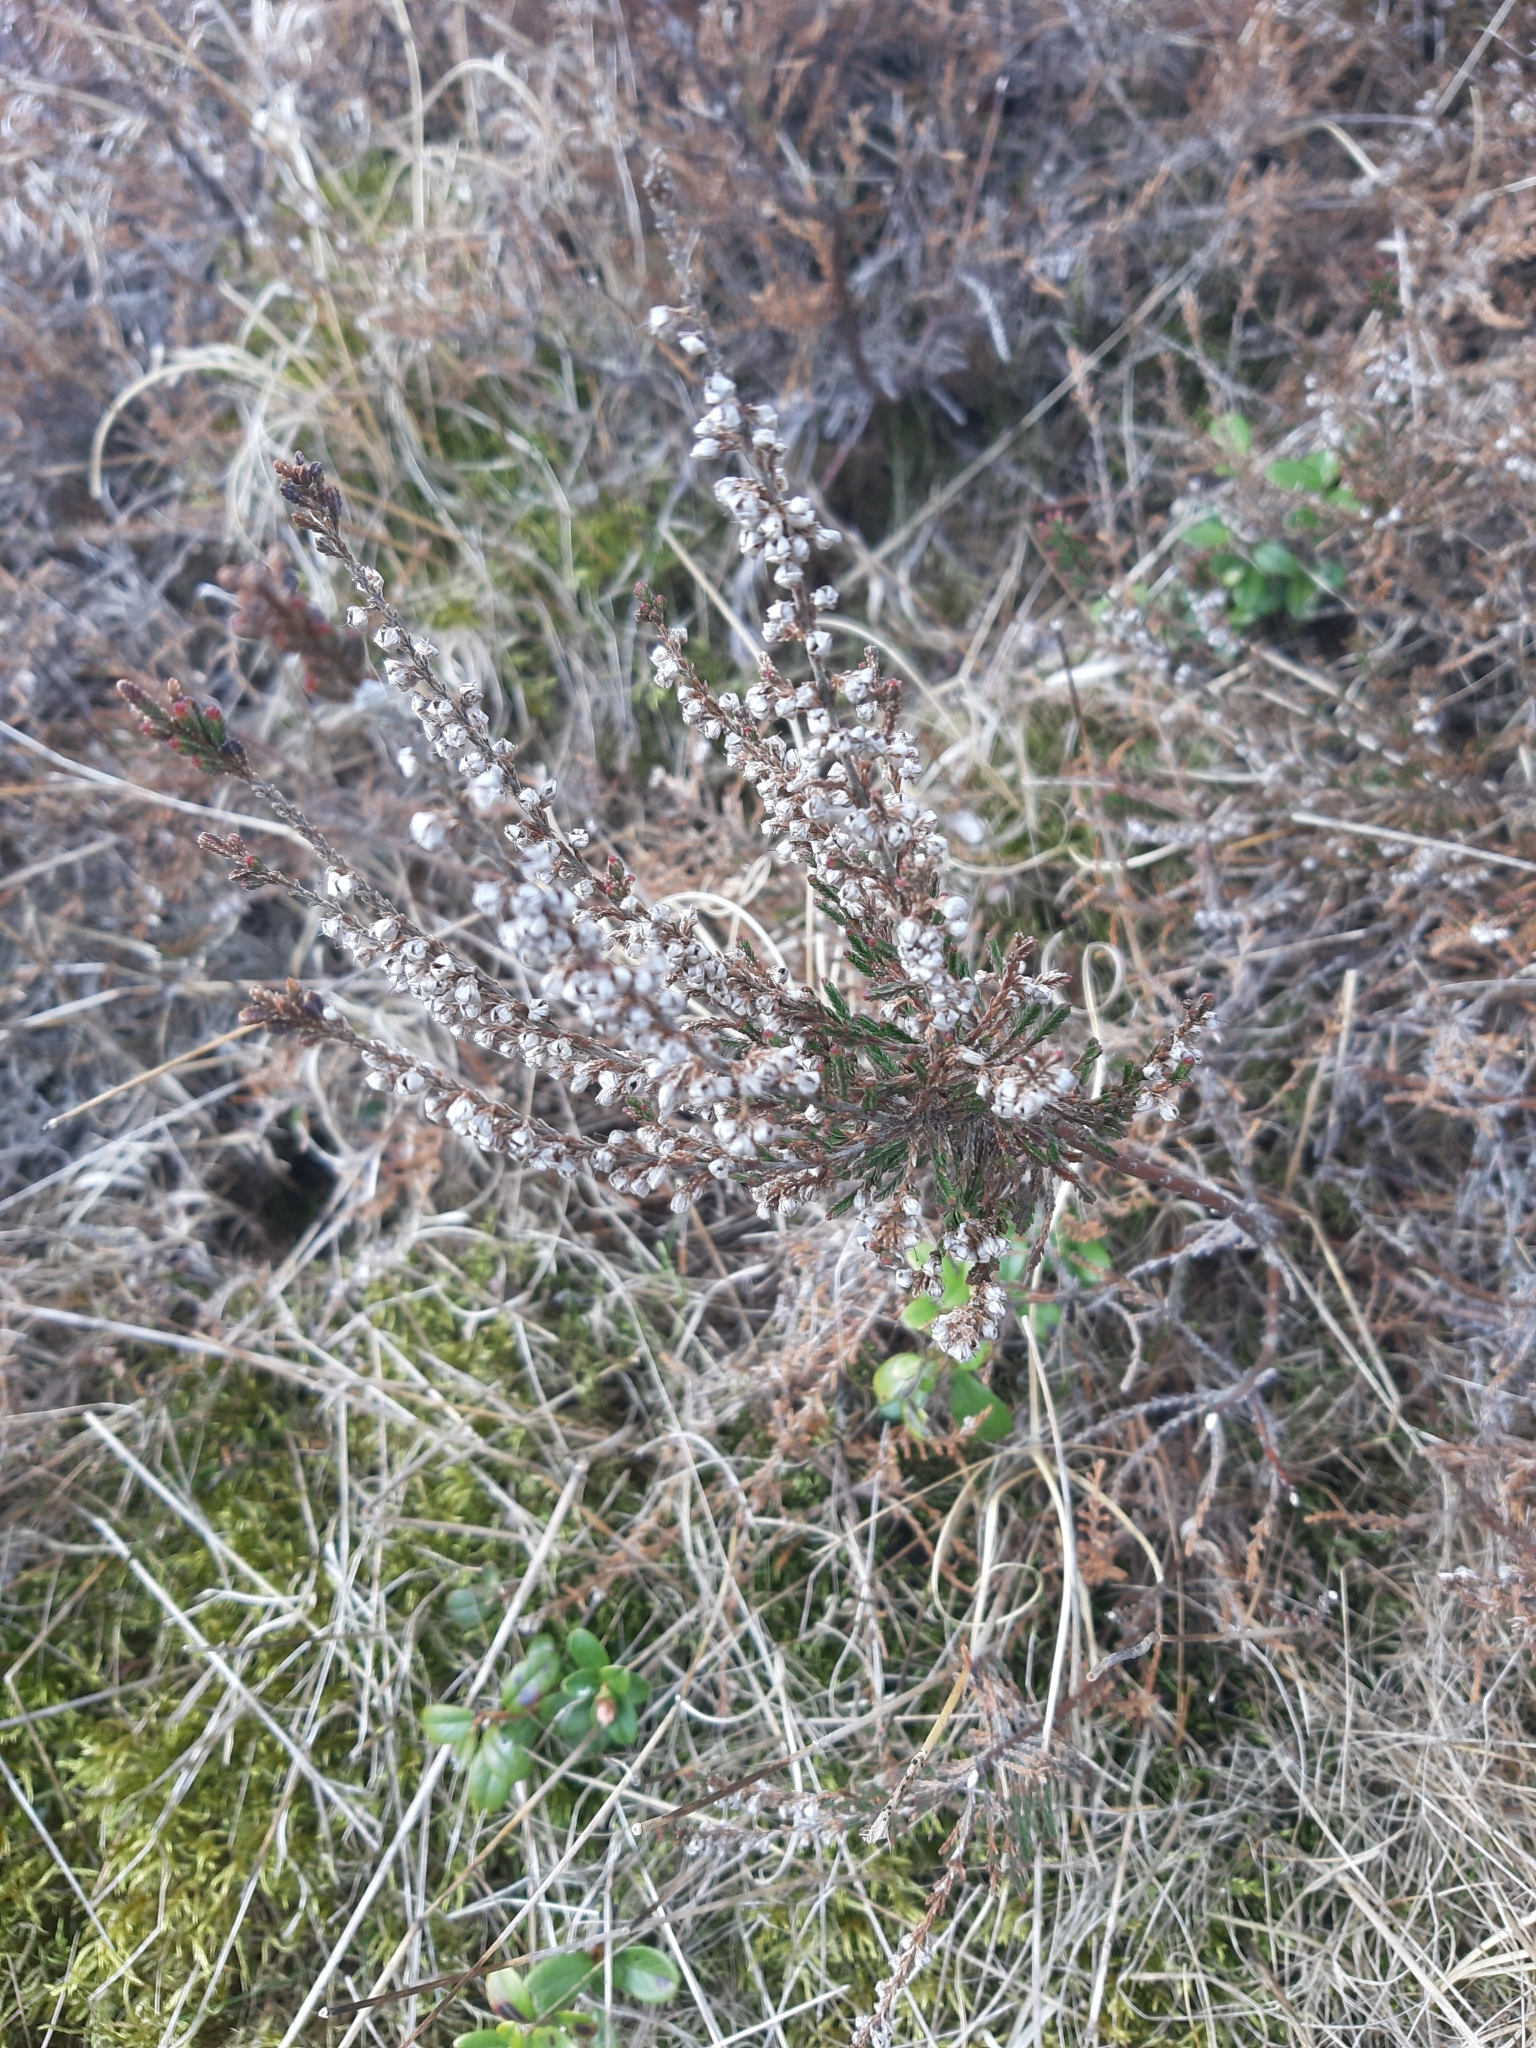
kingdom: Plantae
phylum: Tracheophyta
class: Magnoliopsida
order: Ericales
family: Ericaceae
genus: Calluna
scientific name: Calluna vulgaris
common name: Heather
